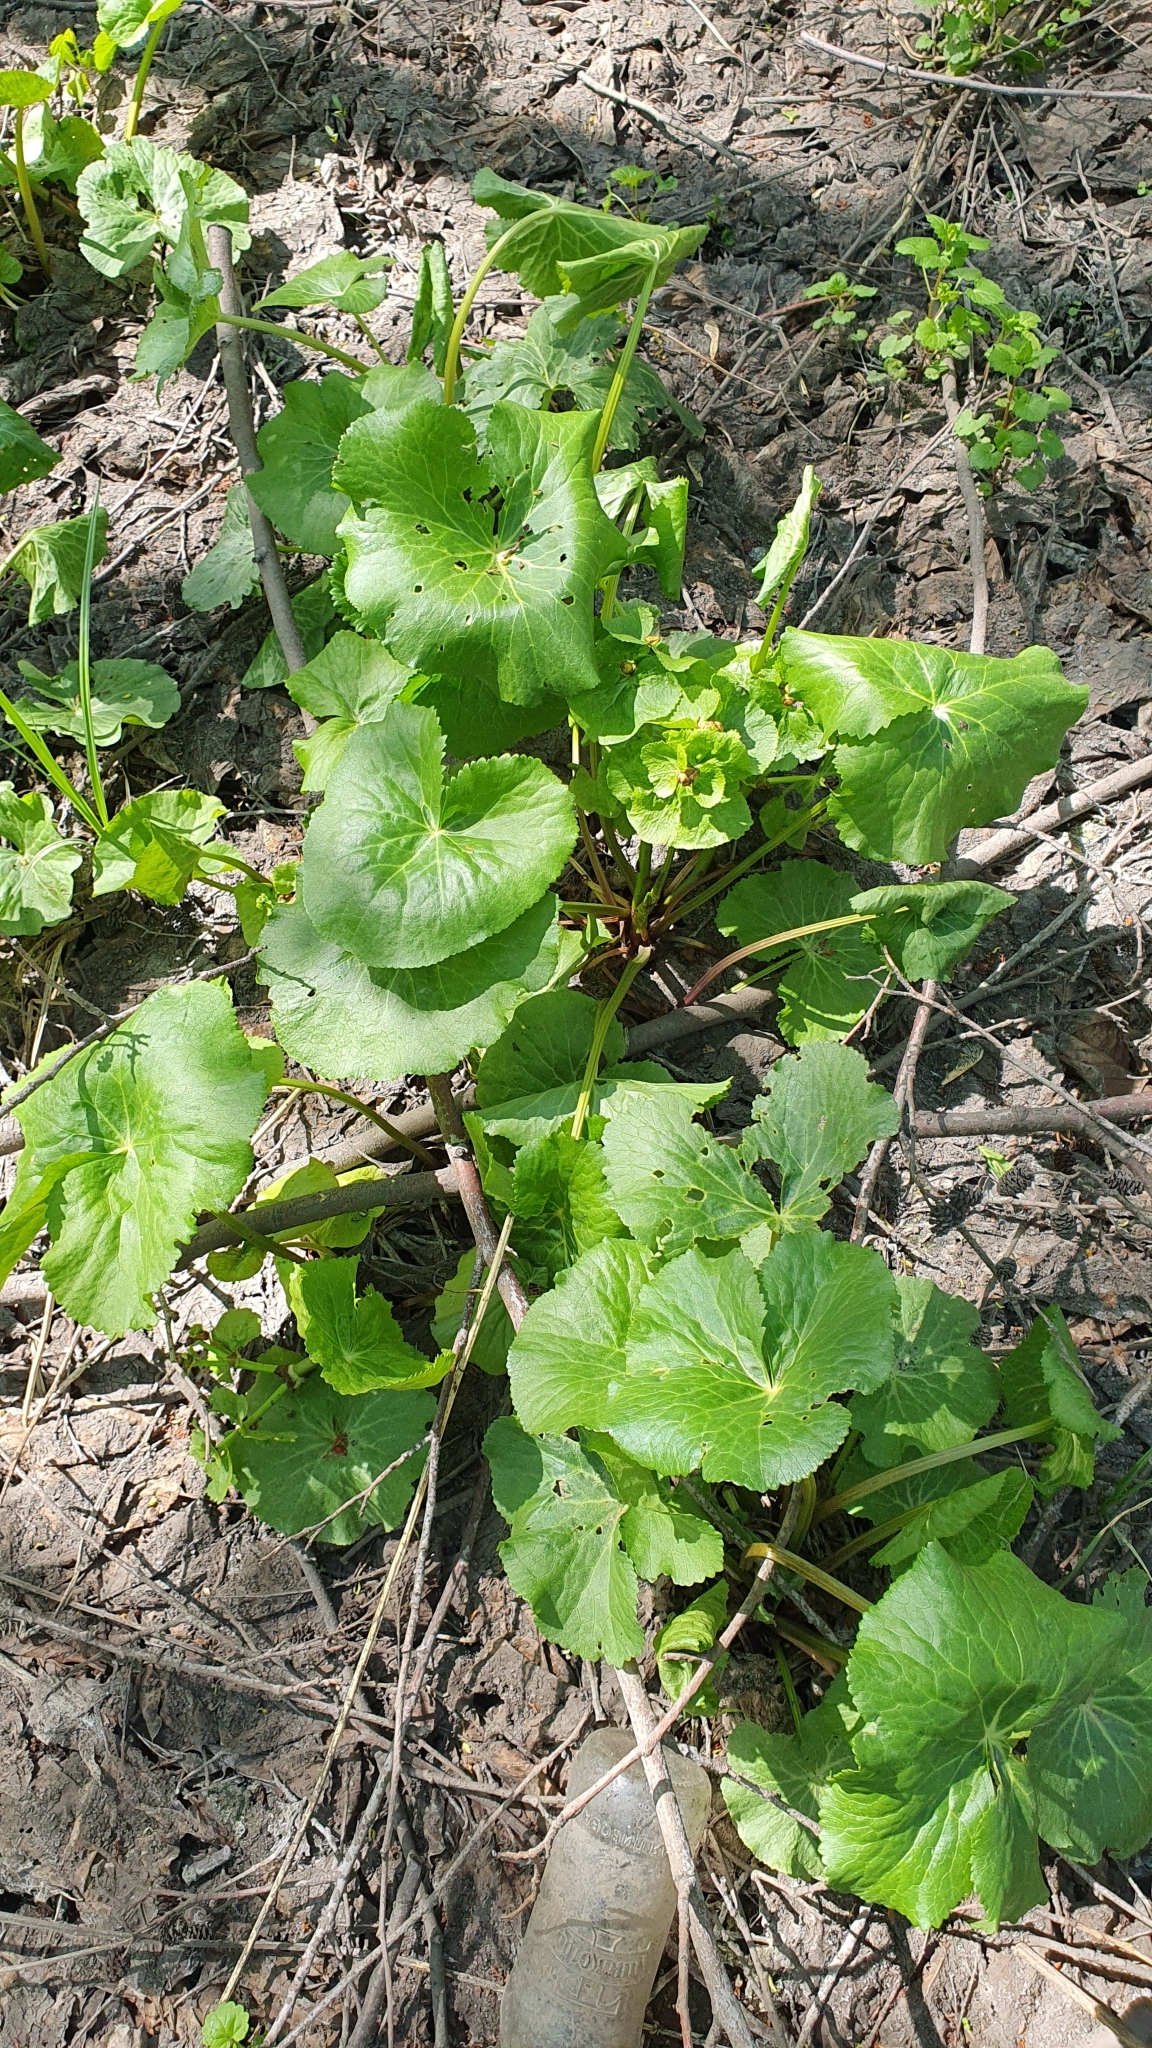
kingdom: Plantae
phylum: Tracheophyta
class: Magnoliopsida
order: Ranunculales
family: Ranunculaceae
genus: Caltha
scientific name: Caltha palustris
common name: Marsh marigold
